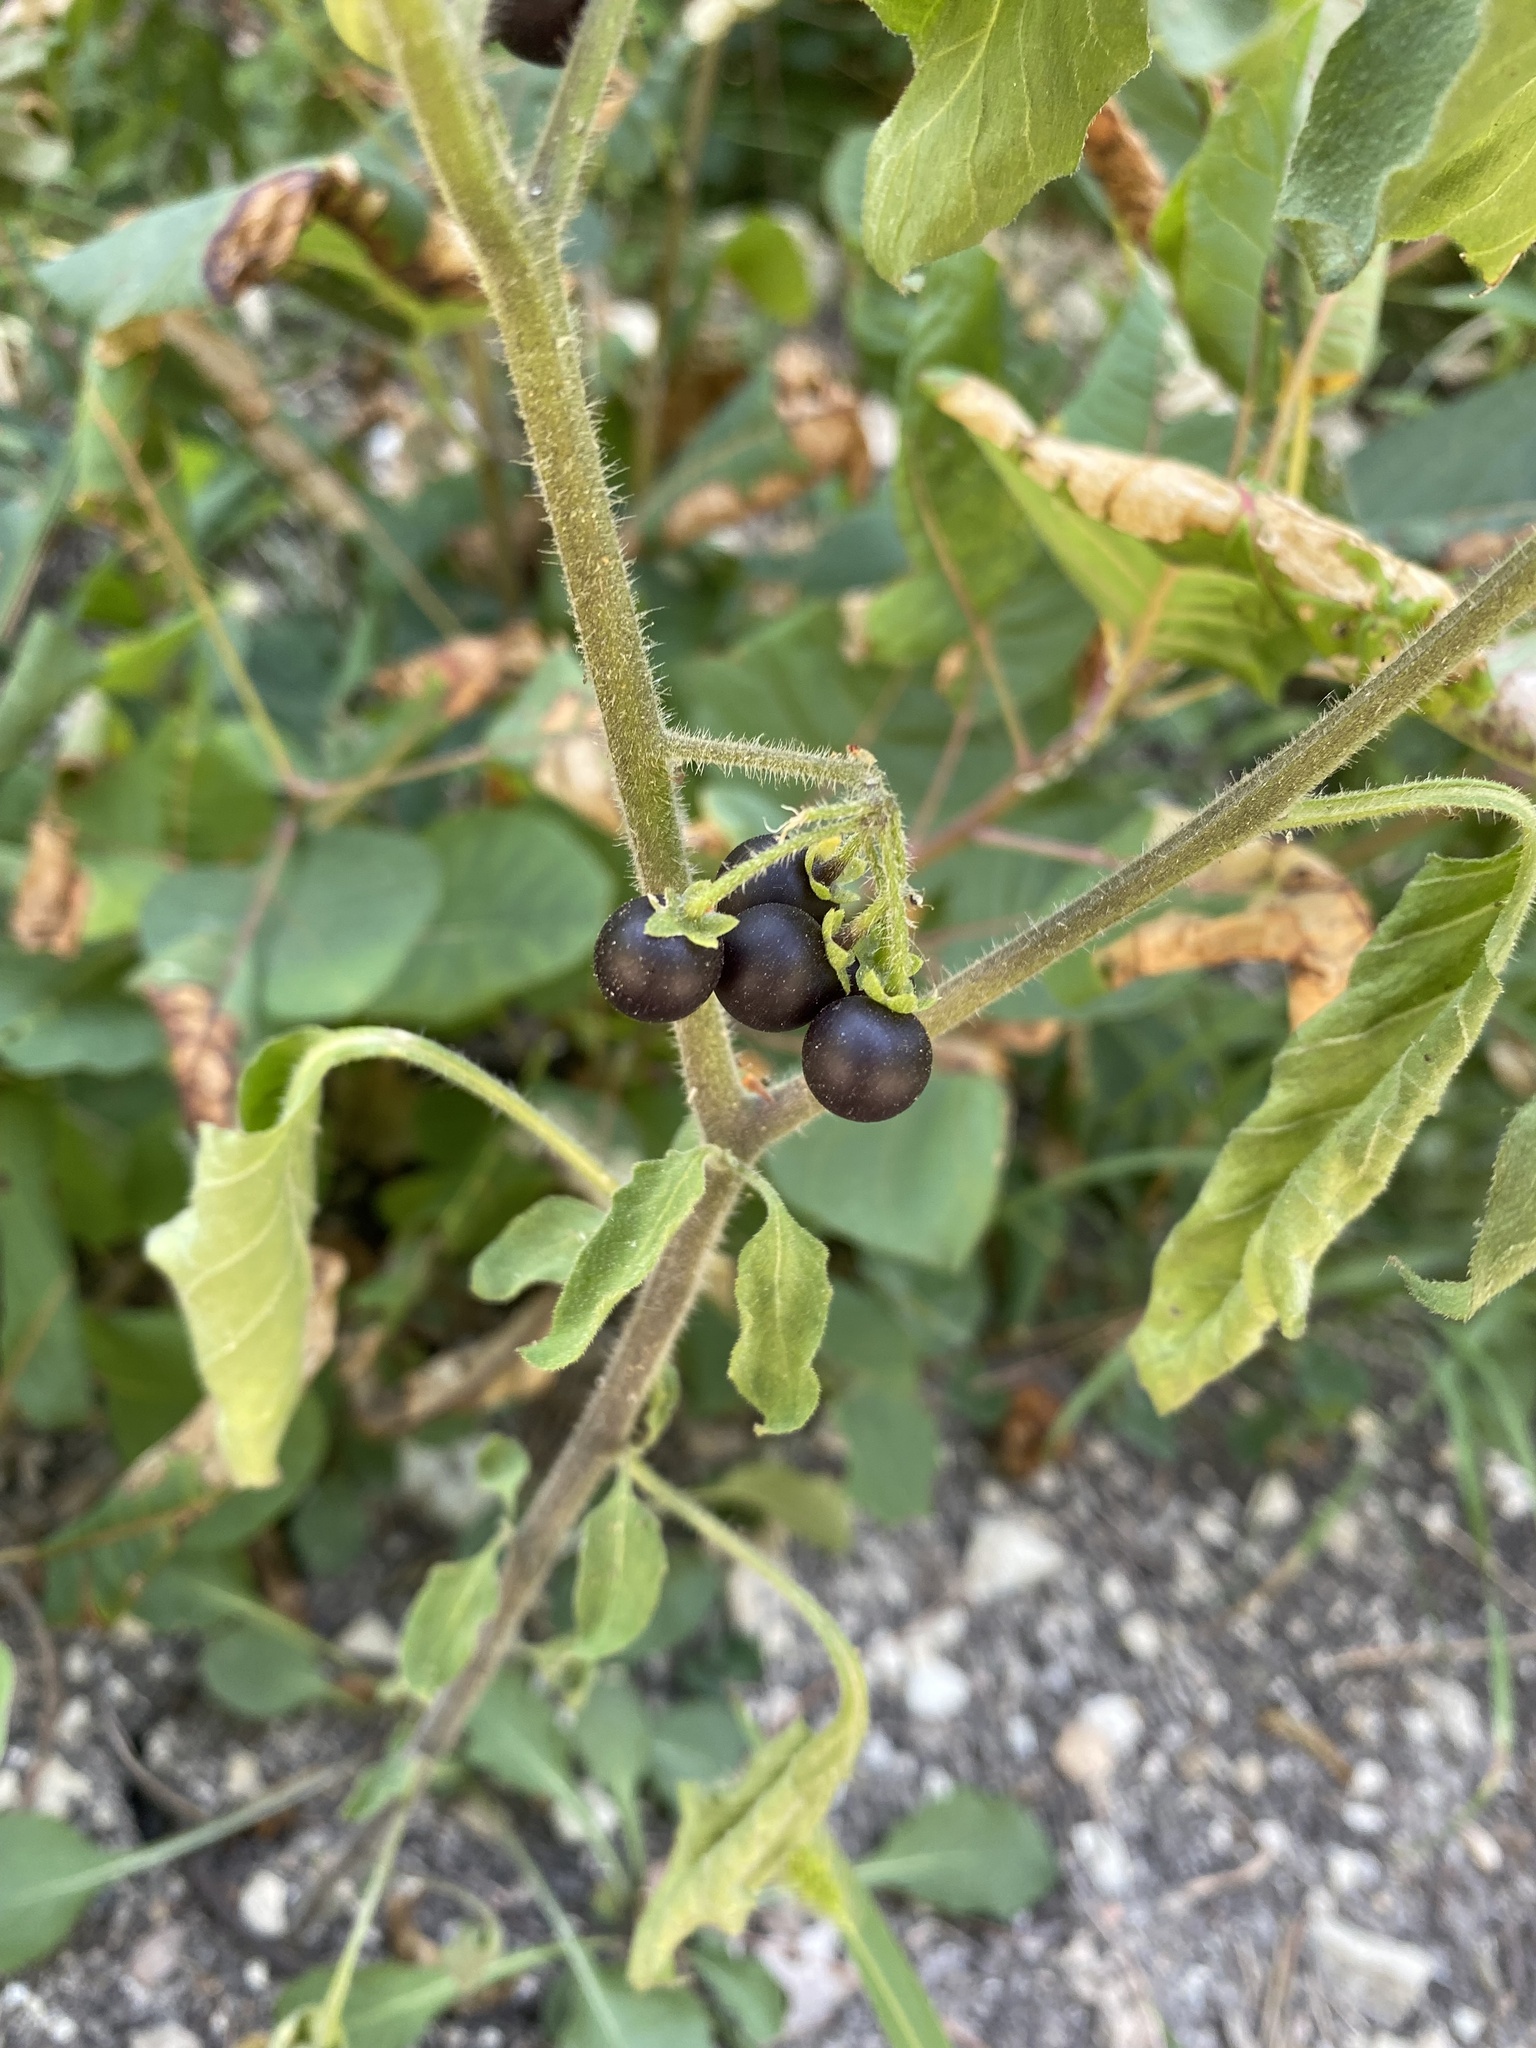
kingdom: Plantae
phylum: Tracheophyta
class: Magnoliopsida
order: Solanales
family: Solanaceae
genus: Solanum
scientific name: Solanum nigrum
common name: Black nightshade
